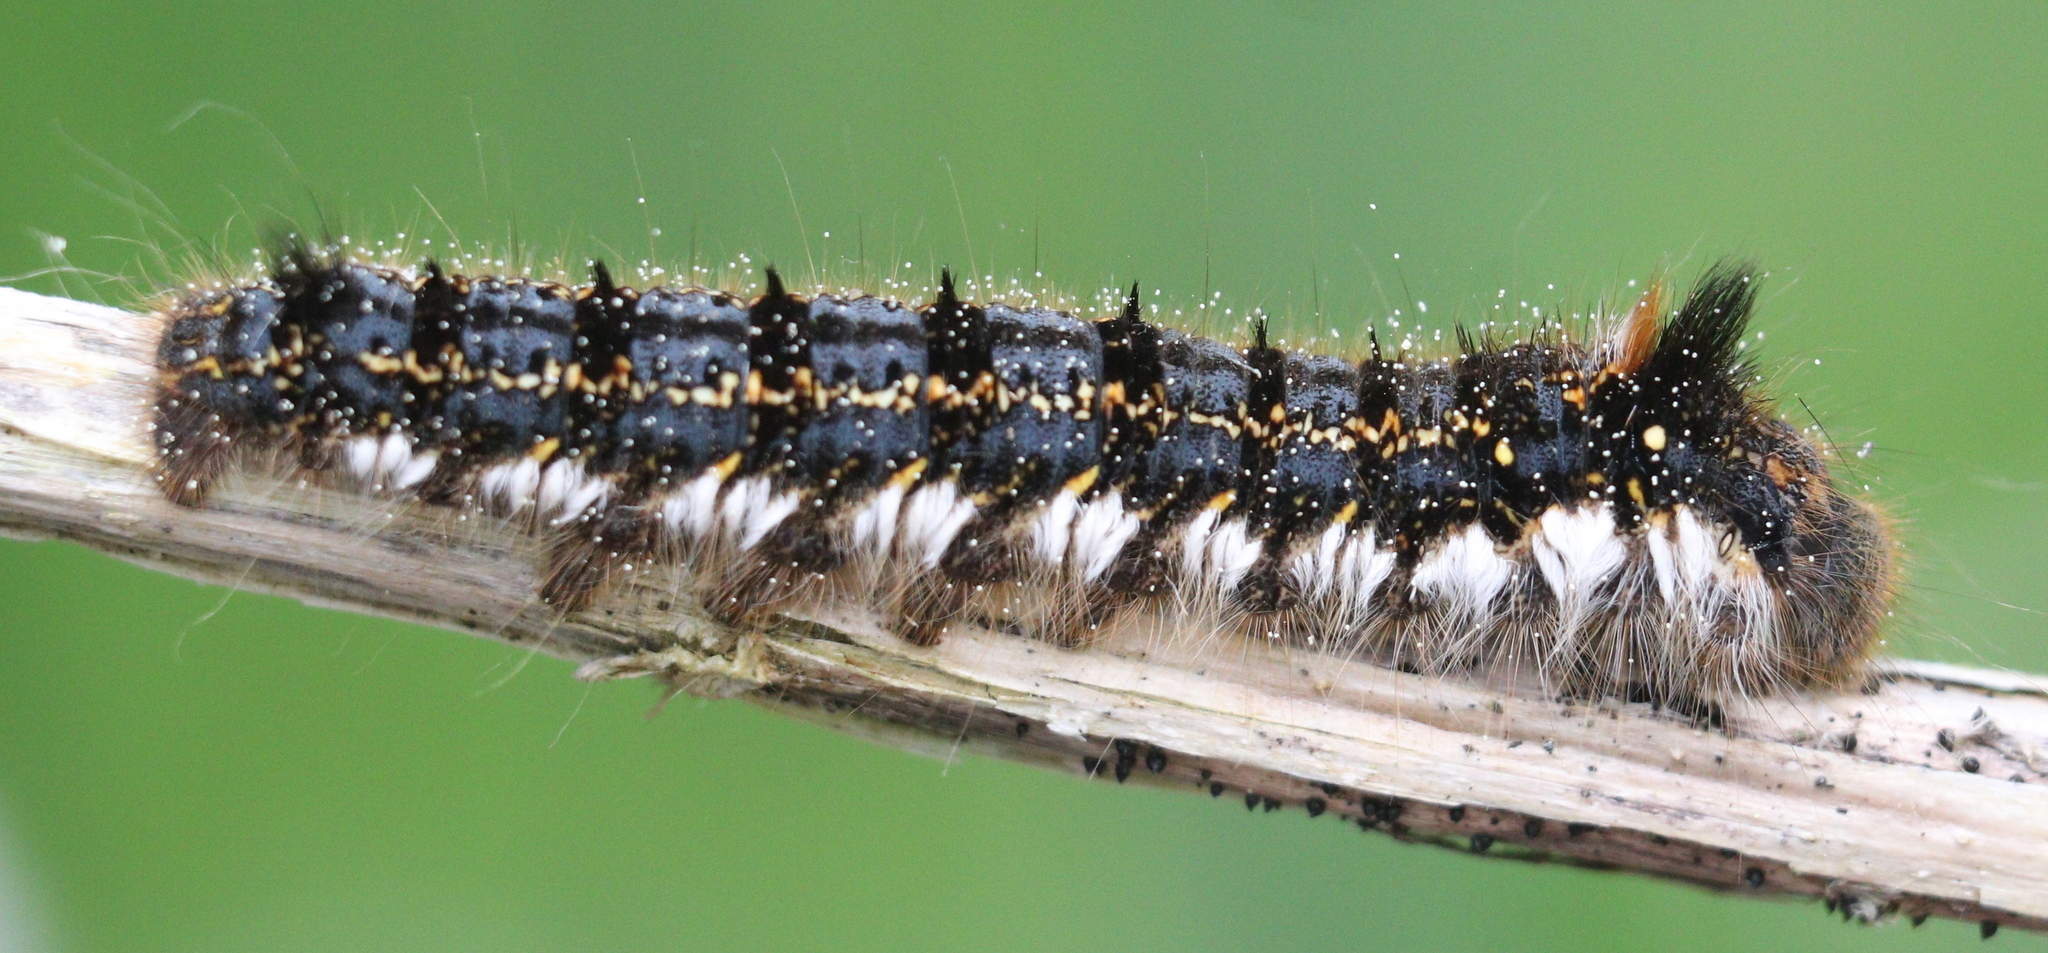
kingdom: Animalia
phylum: Arthropoda
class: Insecta
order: Lepidoptera
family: Lasiocampidae
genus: Euthrix
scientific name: Euthrix potatoria
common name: Drinker
